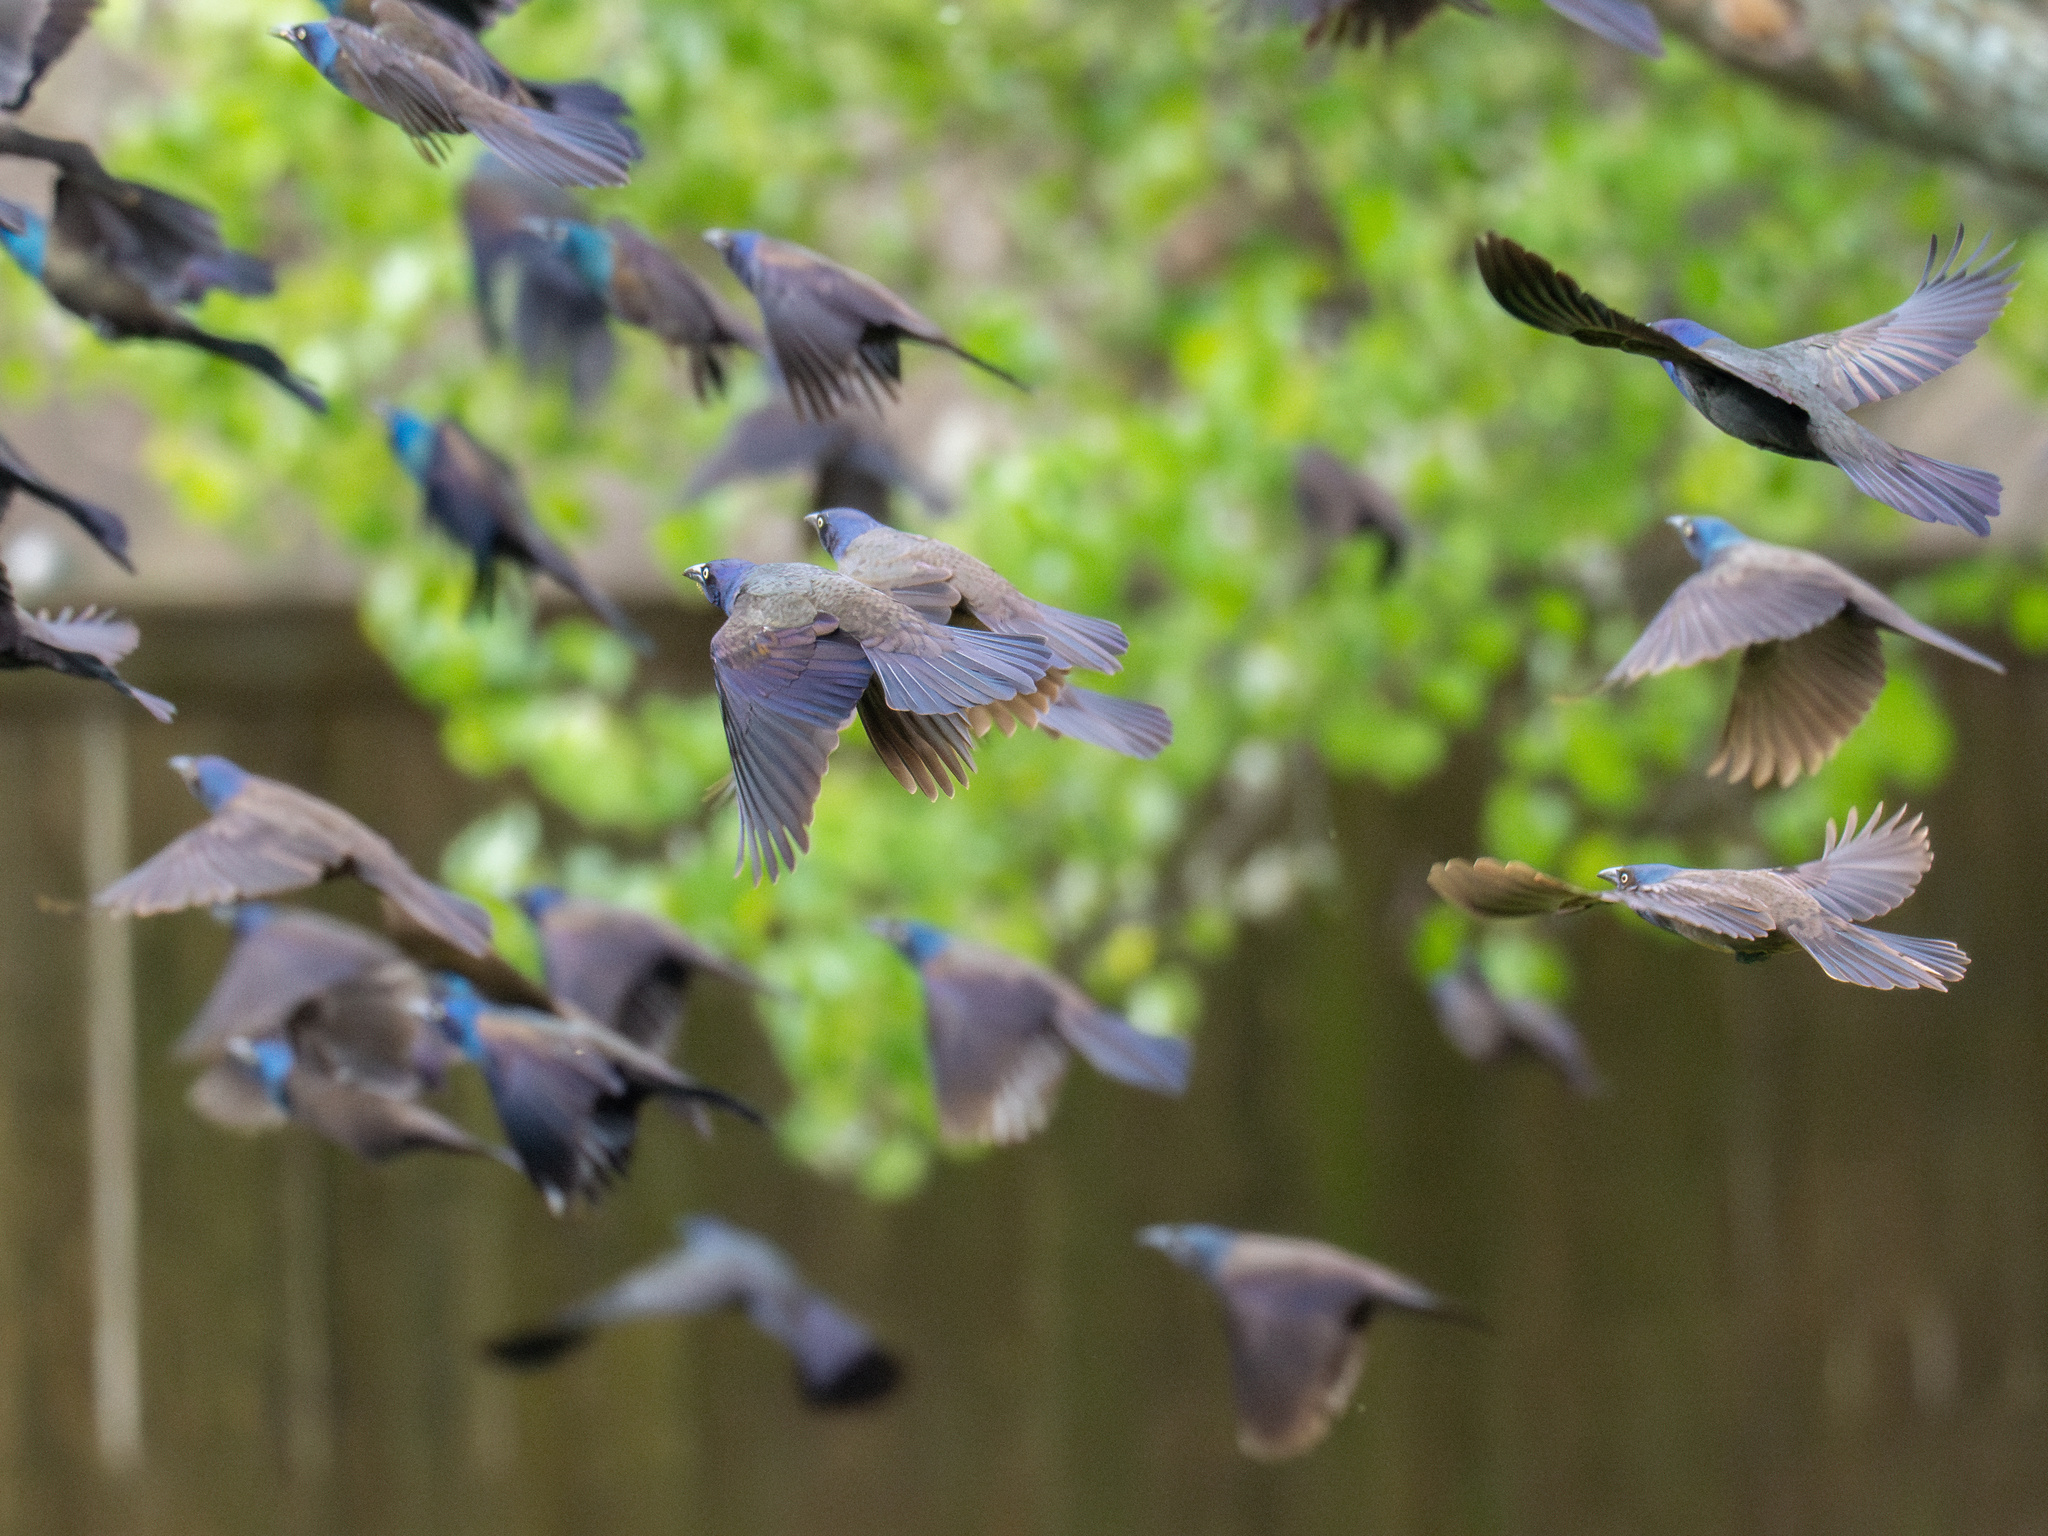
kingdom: Animalia
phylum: Chordata
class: Aves
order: Passeriformes
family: Icteridae
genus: Quiscalus
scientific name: Quiscalus quiscula
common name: Common grackle
